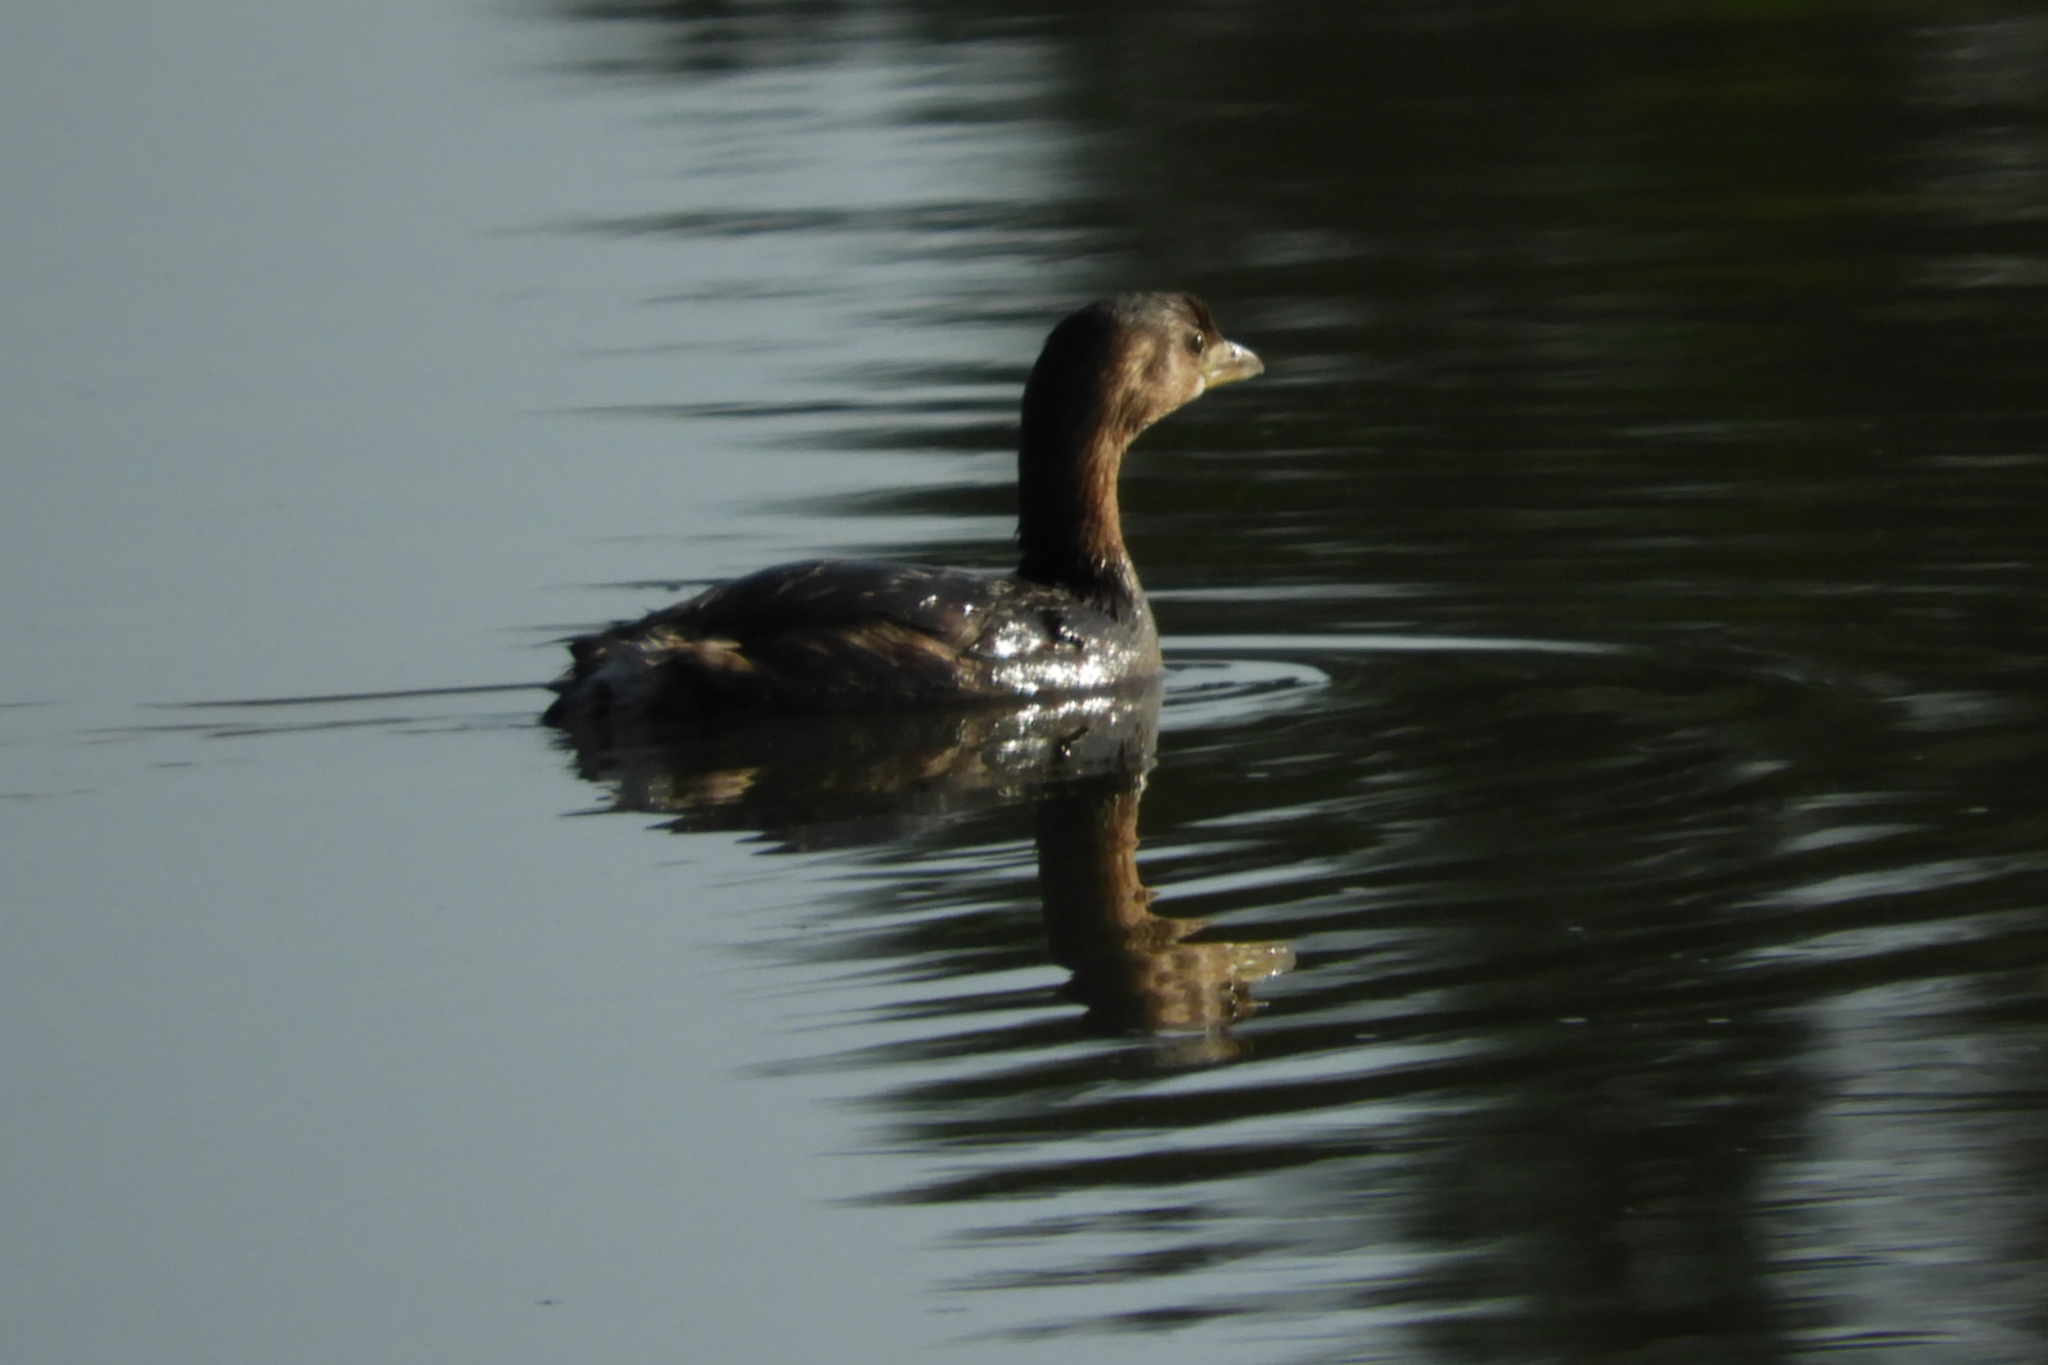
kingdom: Animalia
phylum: Chordata
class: Aves
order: Podicipediformes
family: Podicipedidae
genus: Podilymbus
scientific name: Podilymbus podiceps
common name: Pied-billed grebe
